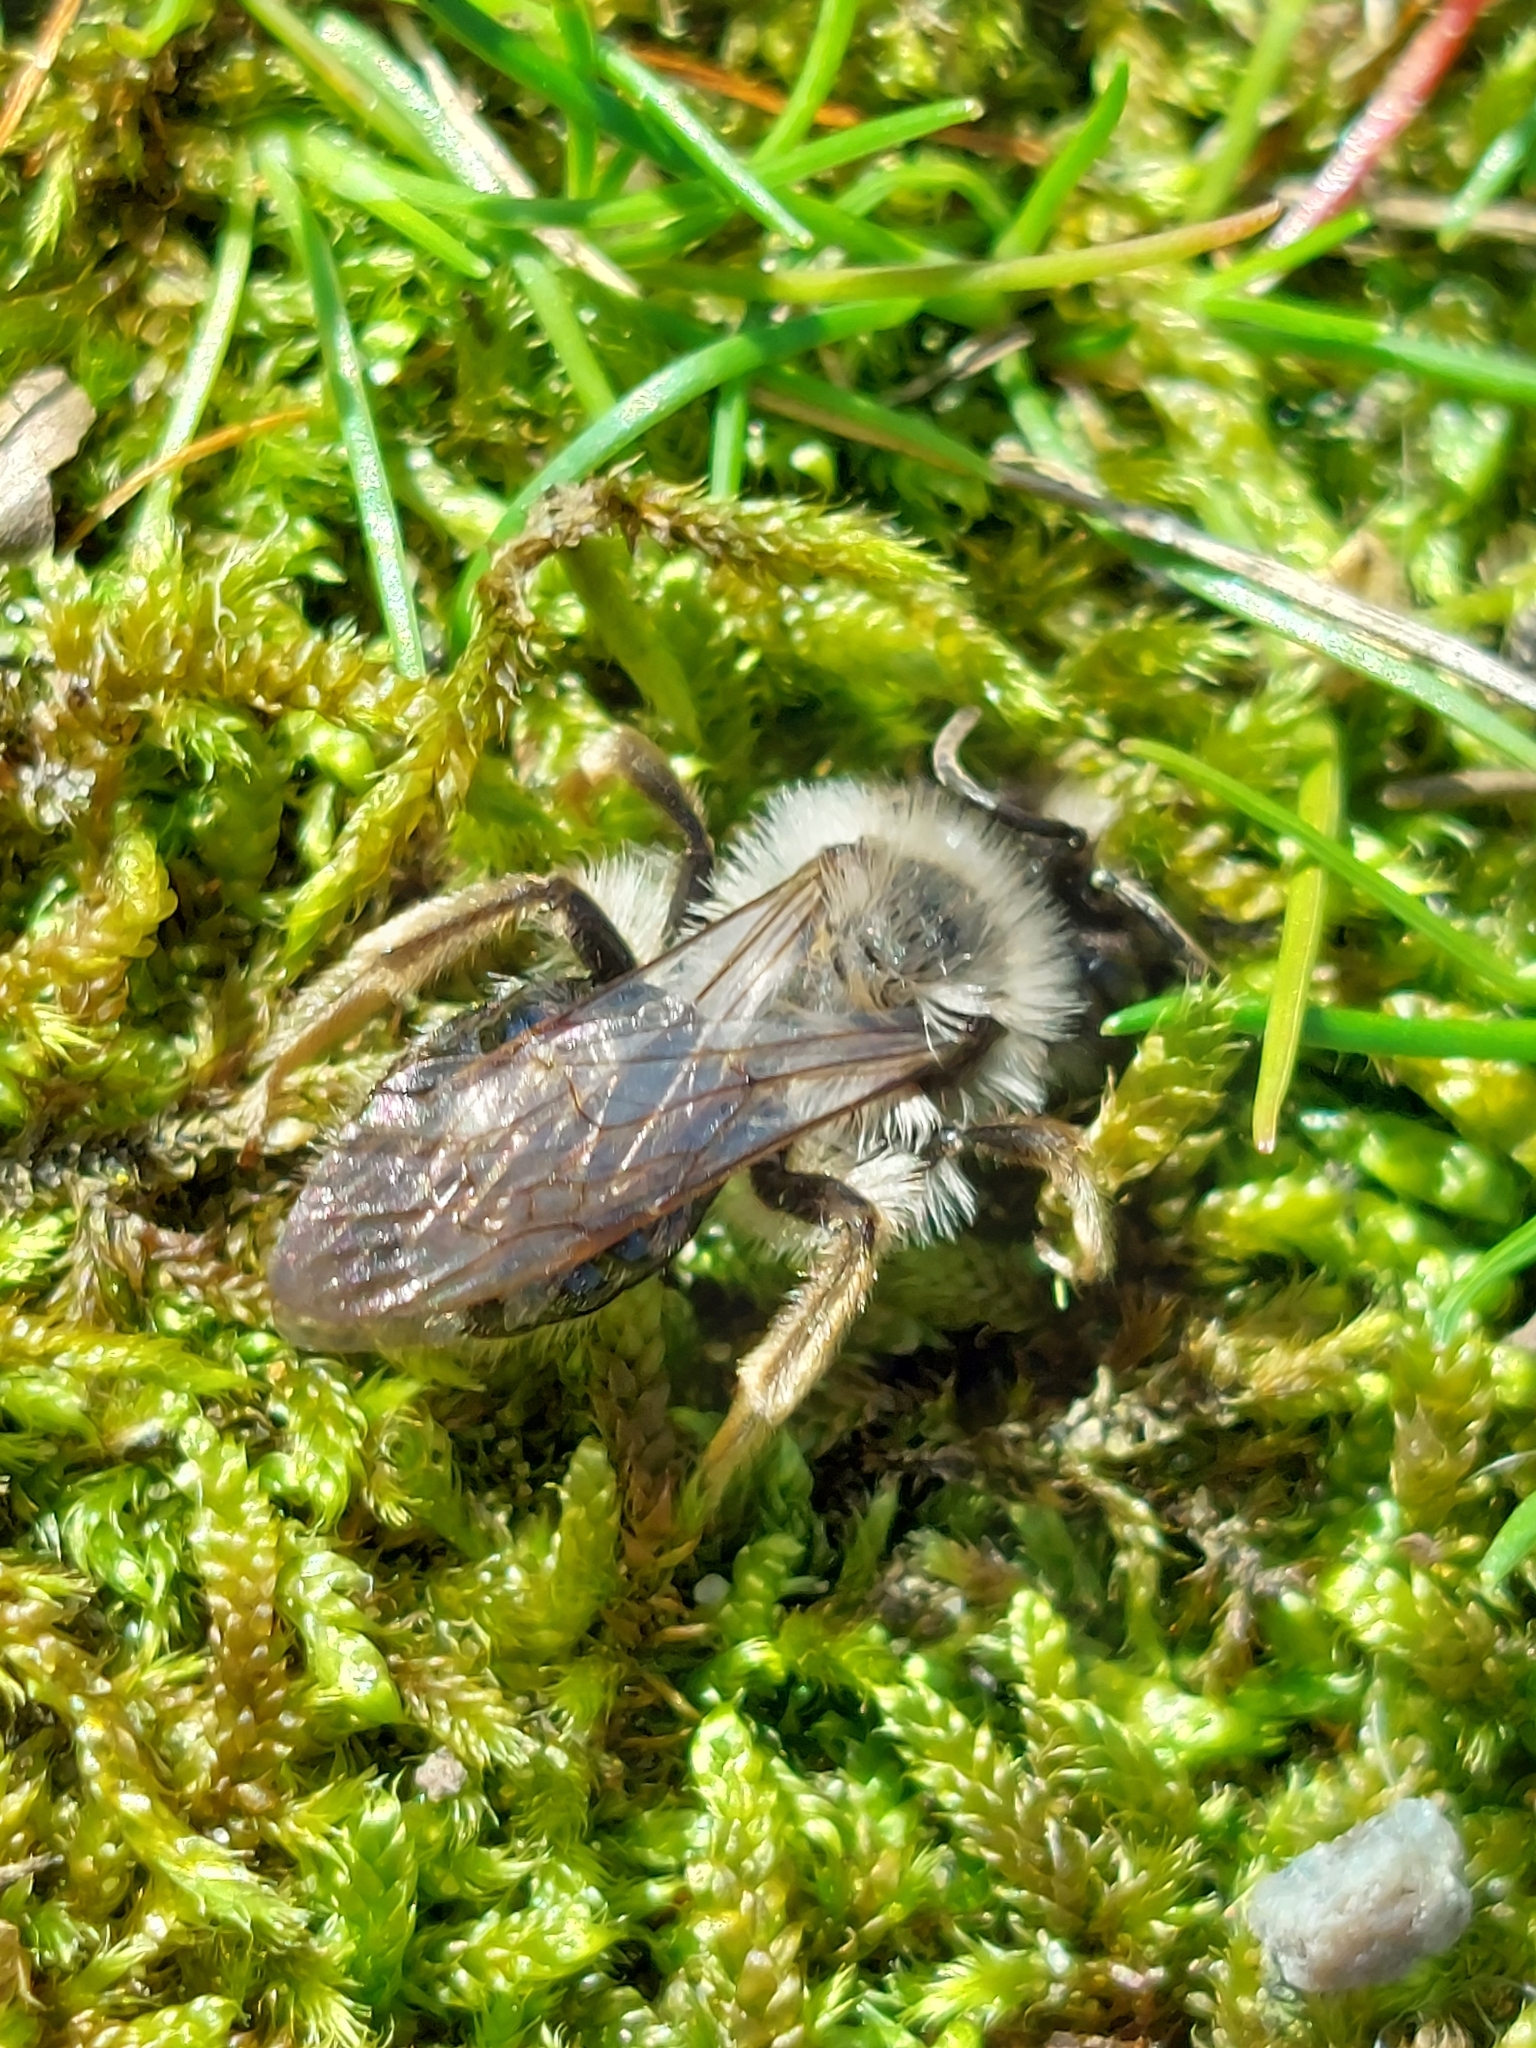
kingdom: Animalia
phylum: Arthropoda
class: Insecta
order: Hymenoptera
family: Andrenidae
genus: Andrena
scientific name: Andrena vaga
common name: Grey-backed mining bee
